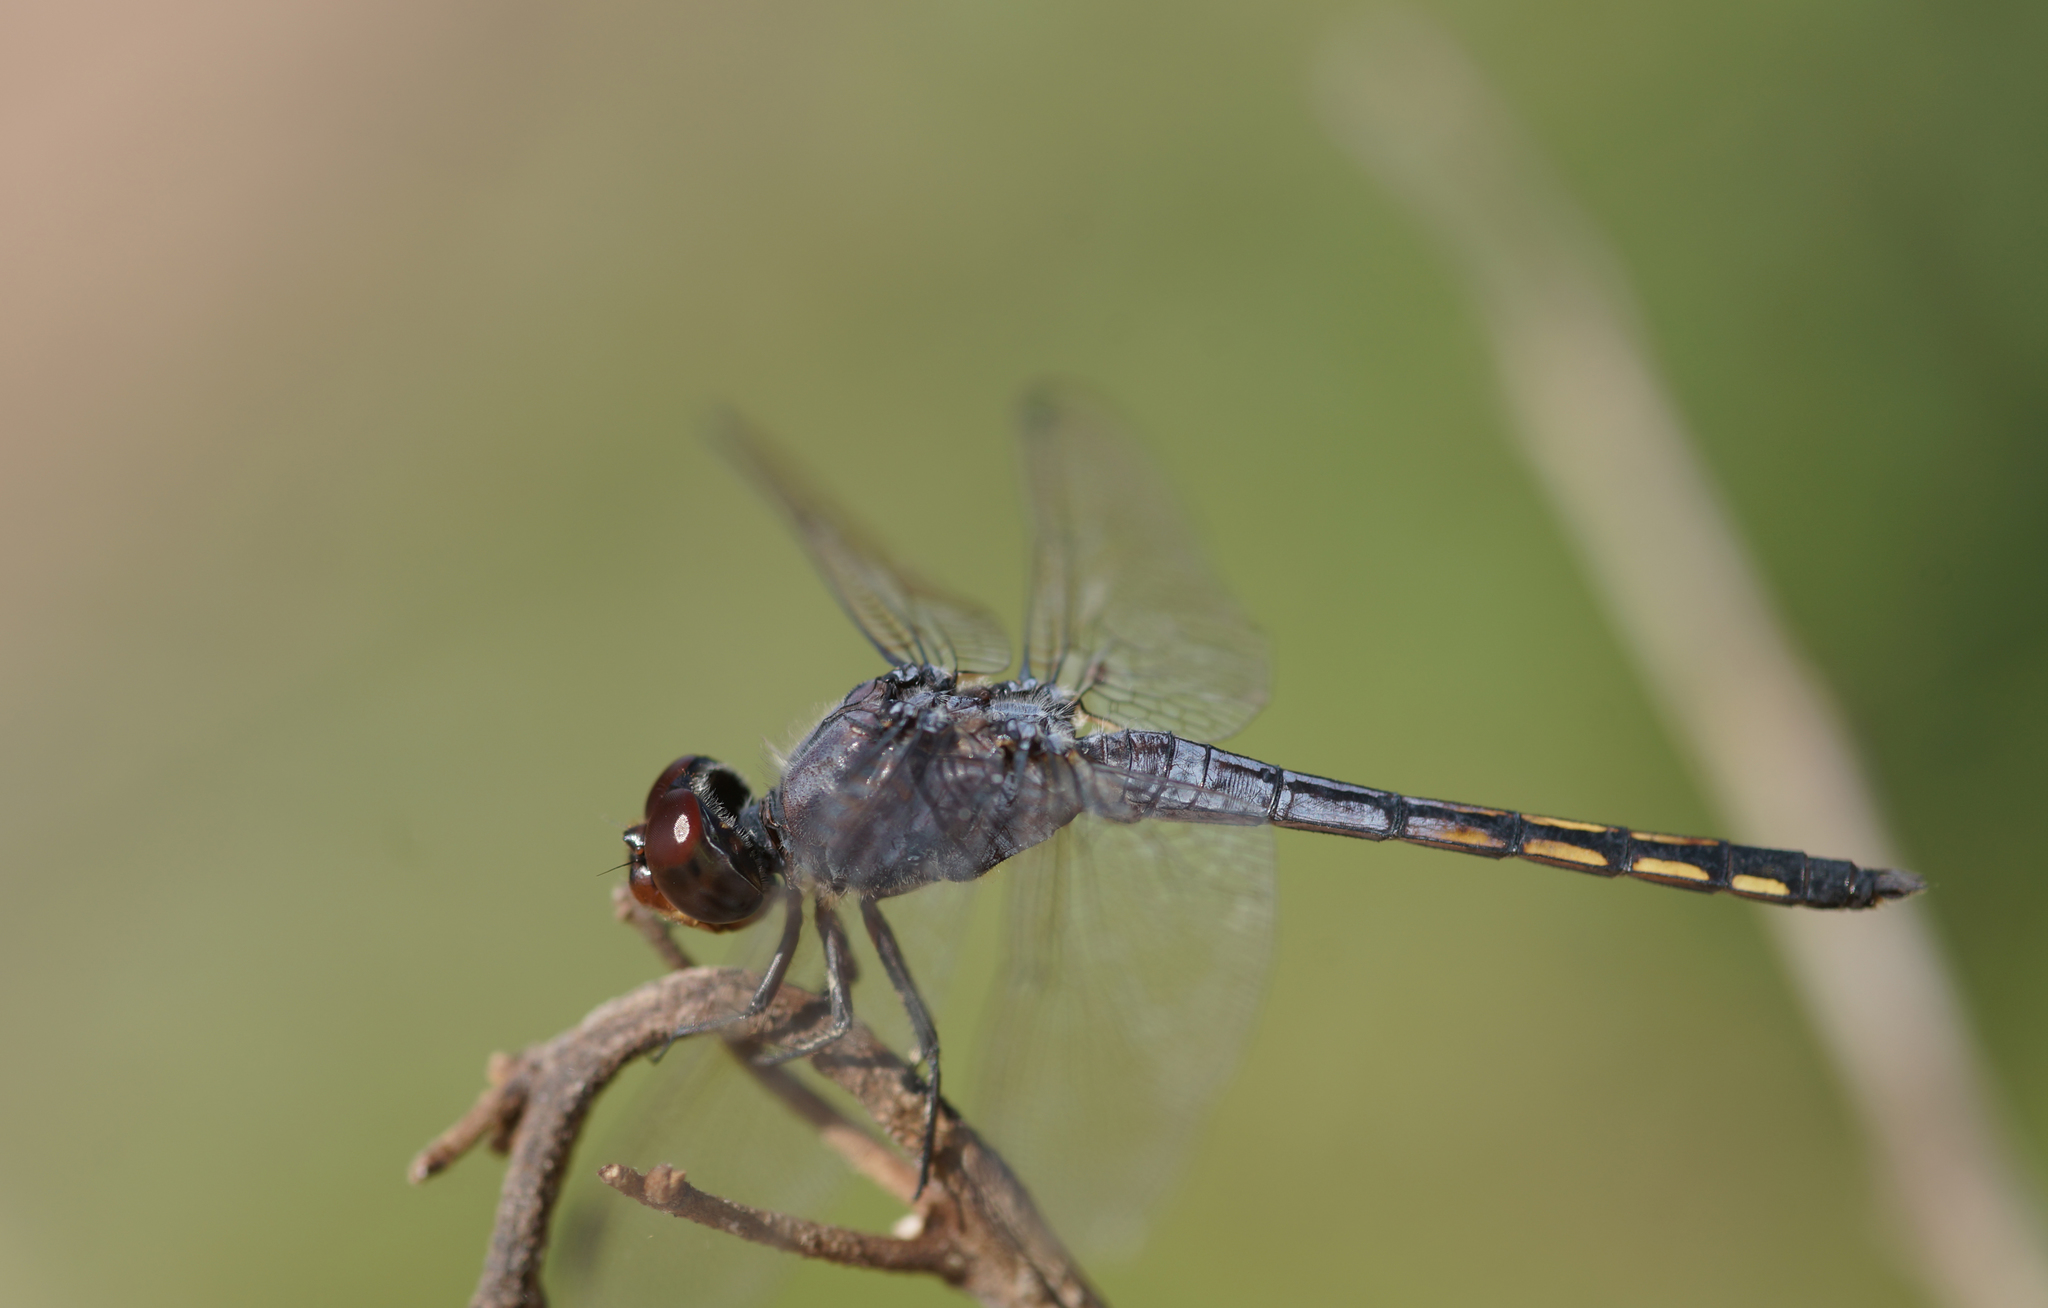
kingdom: Animalia
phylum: Arthropoda
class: Insecta
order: Odonata
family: Libellulidae
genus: Potamarcha
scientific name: Potamarcha congener
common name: Blue chaser
